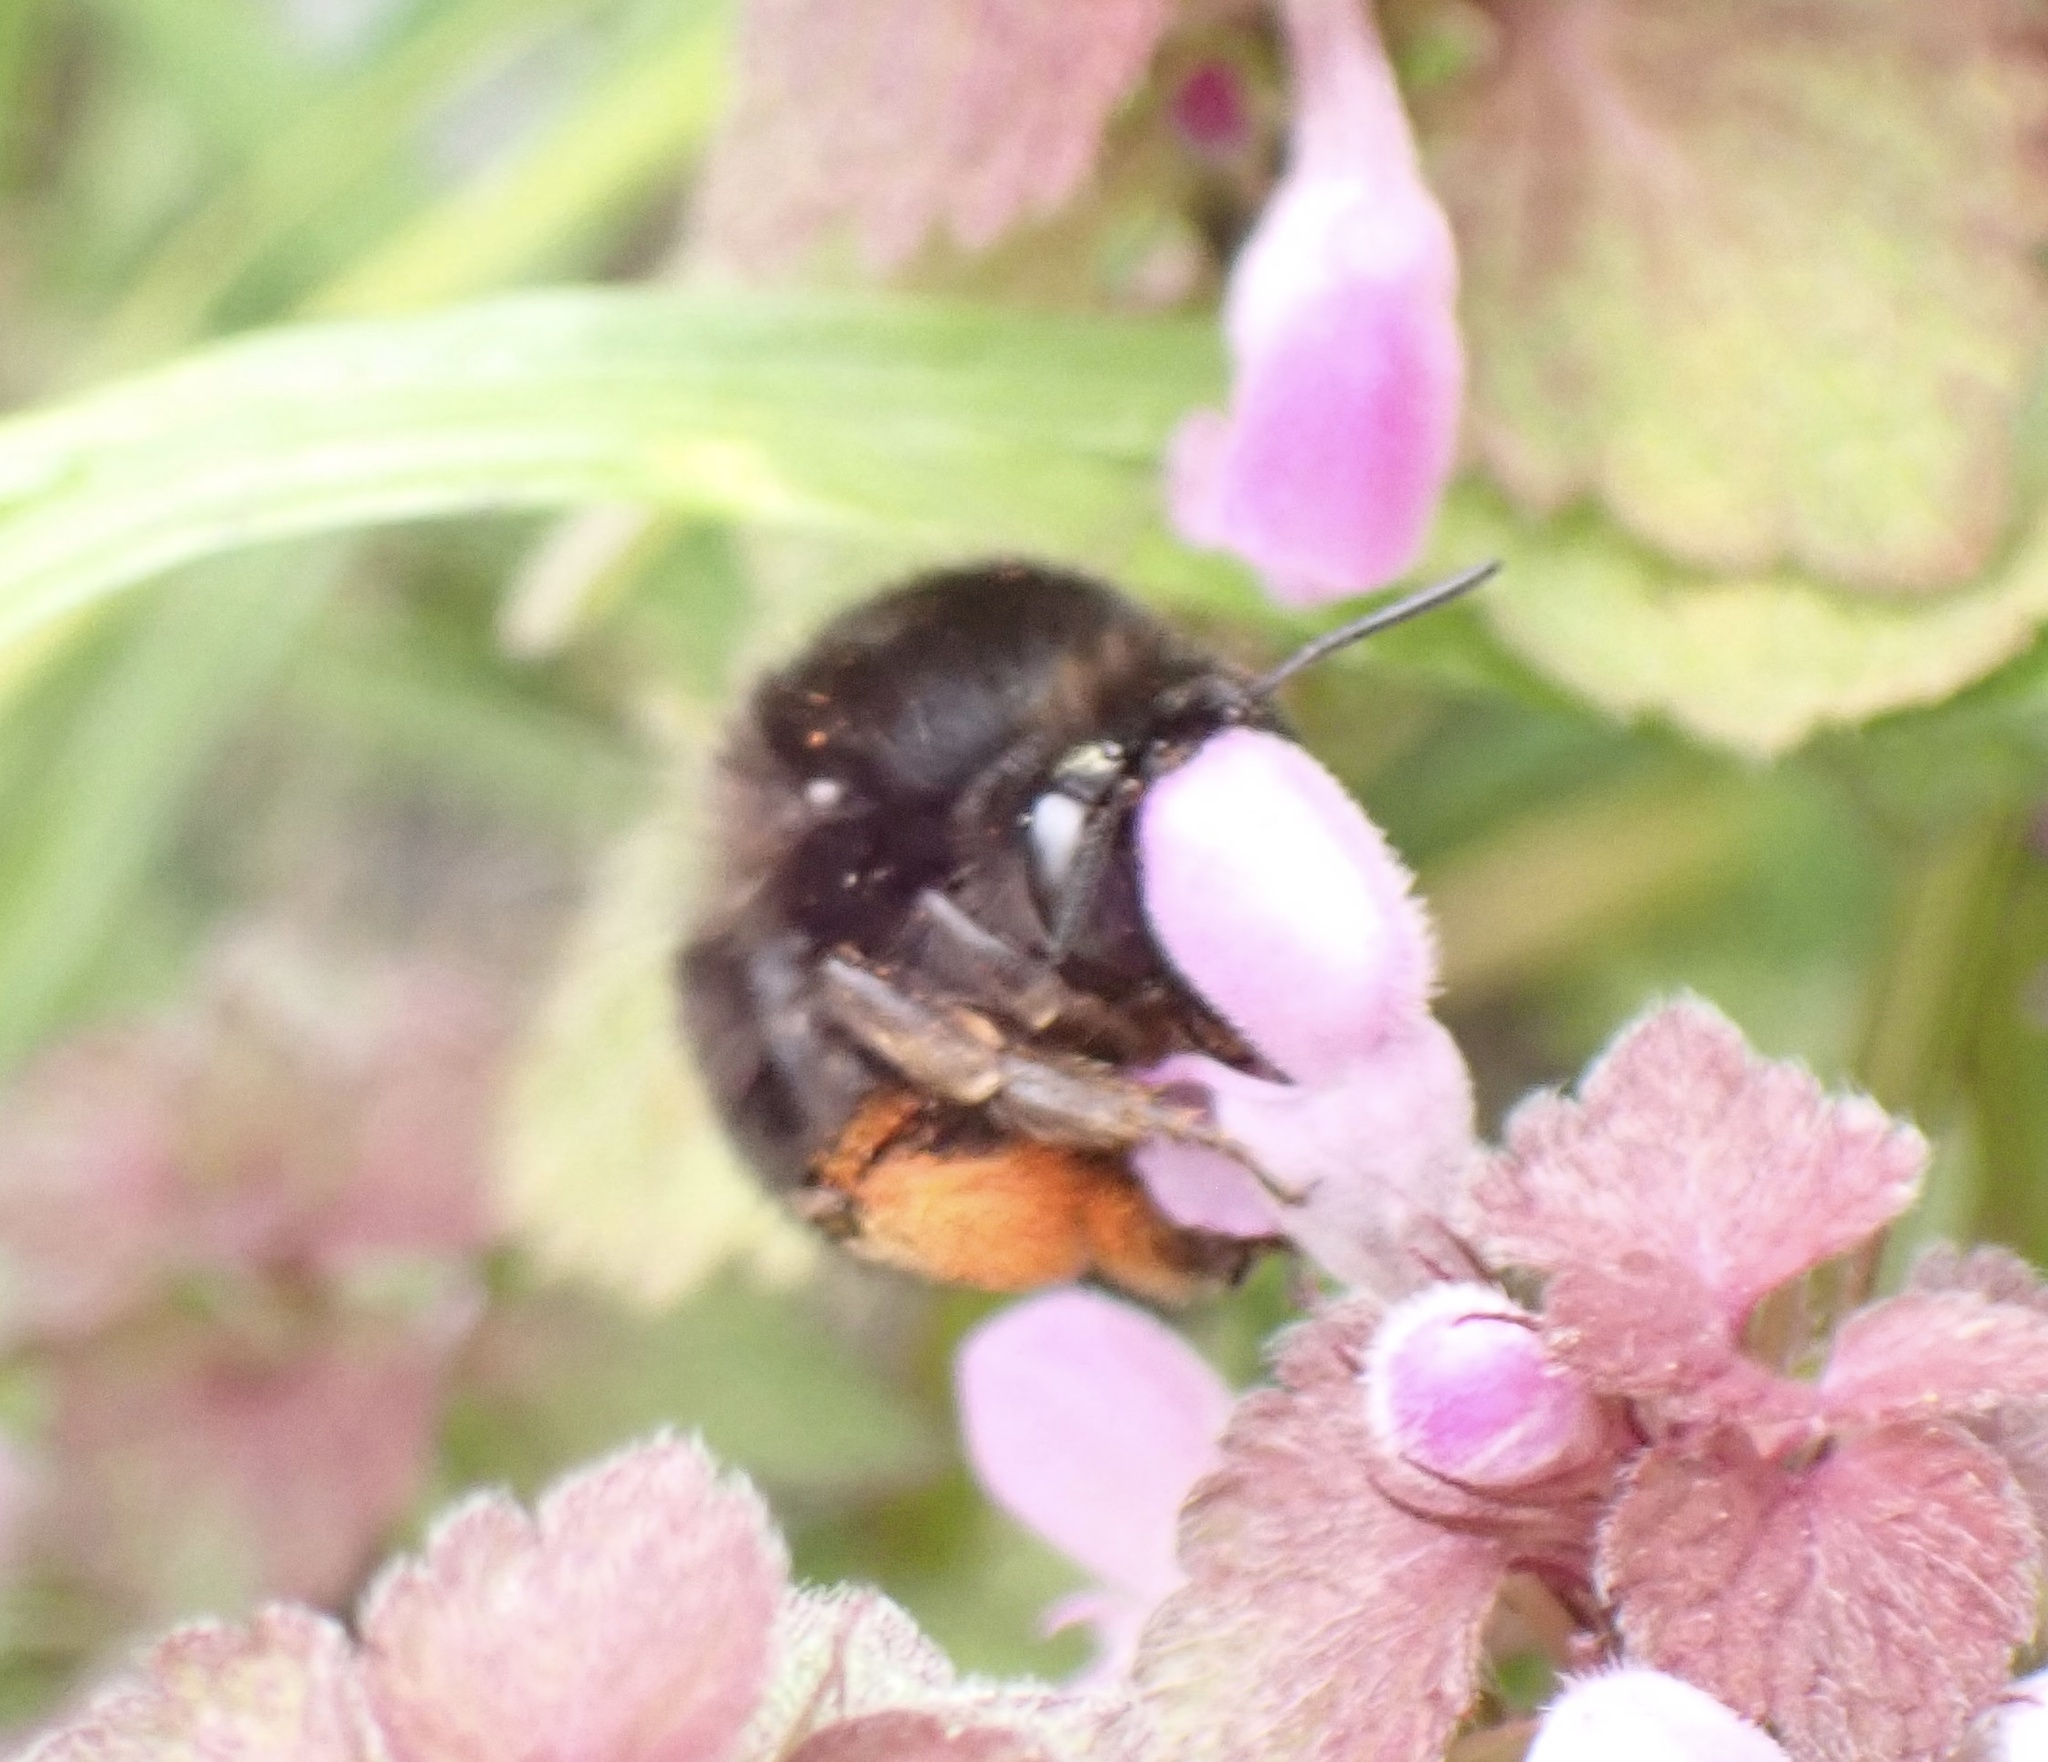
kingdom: Animalia
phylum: Arthropoda
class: Insecta
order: Hymenoptera
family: Apidae
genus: Anthophora
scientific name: Anthophora plumipes
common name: Hairy-footed flower bee
